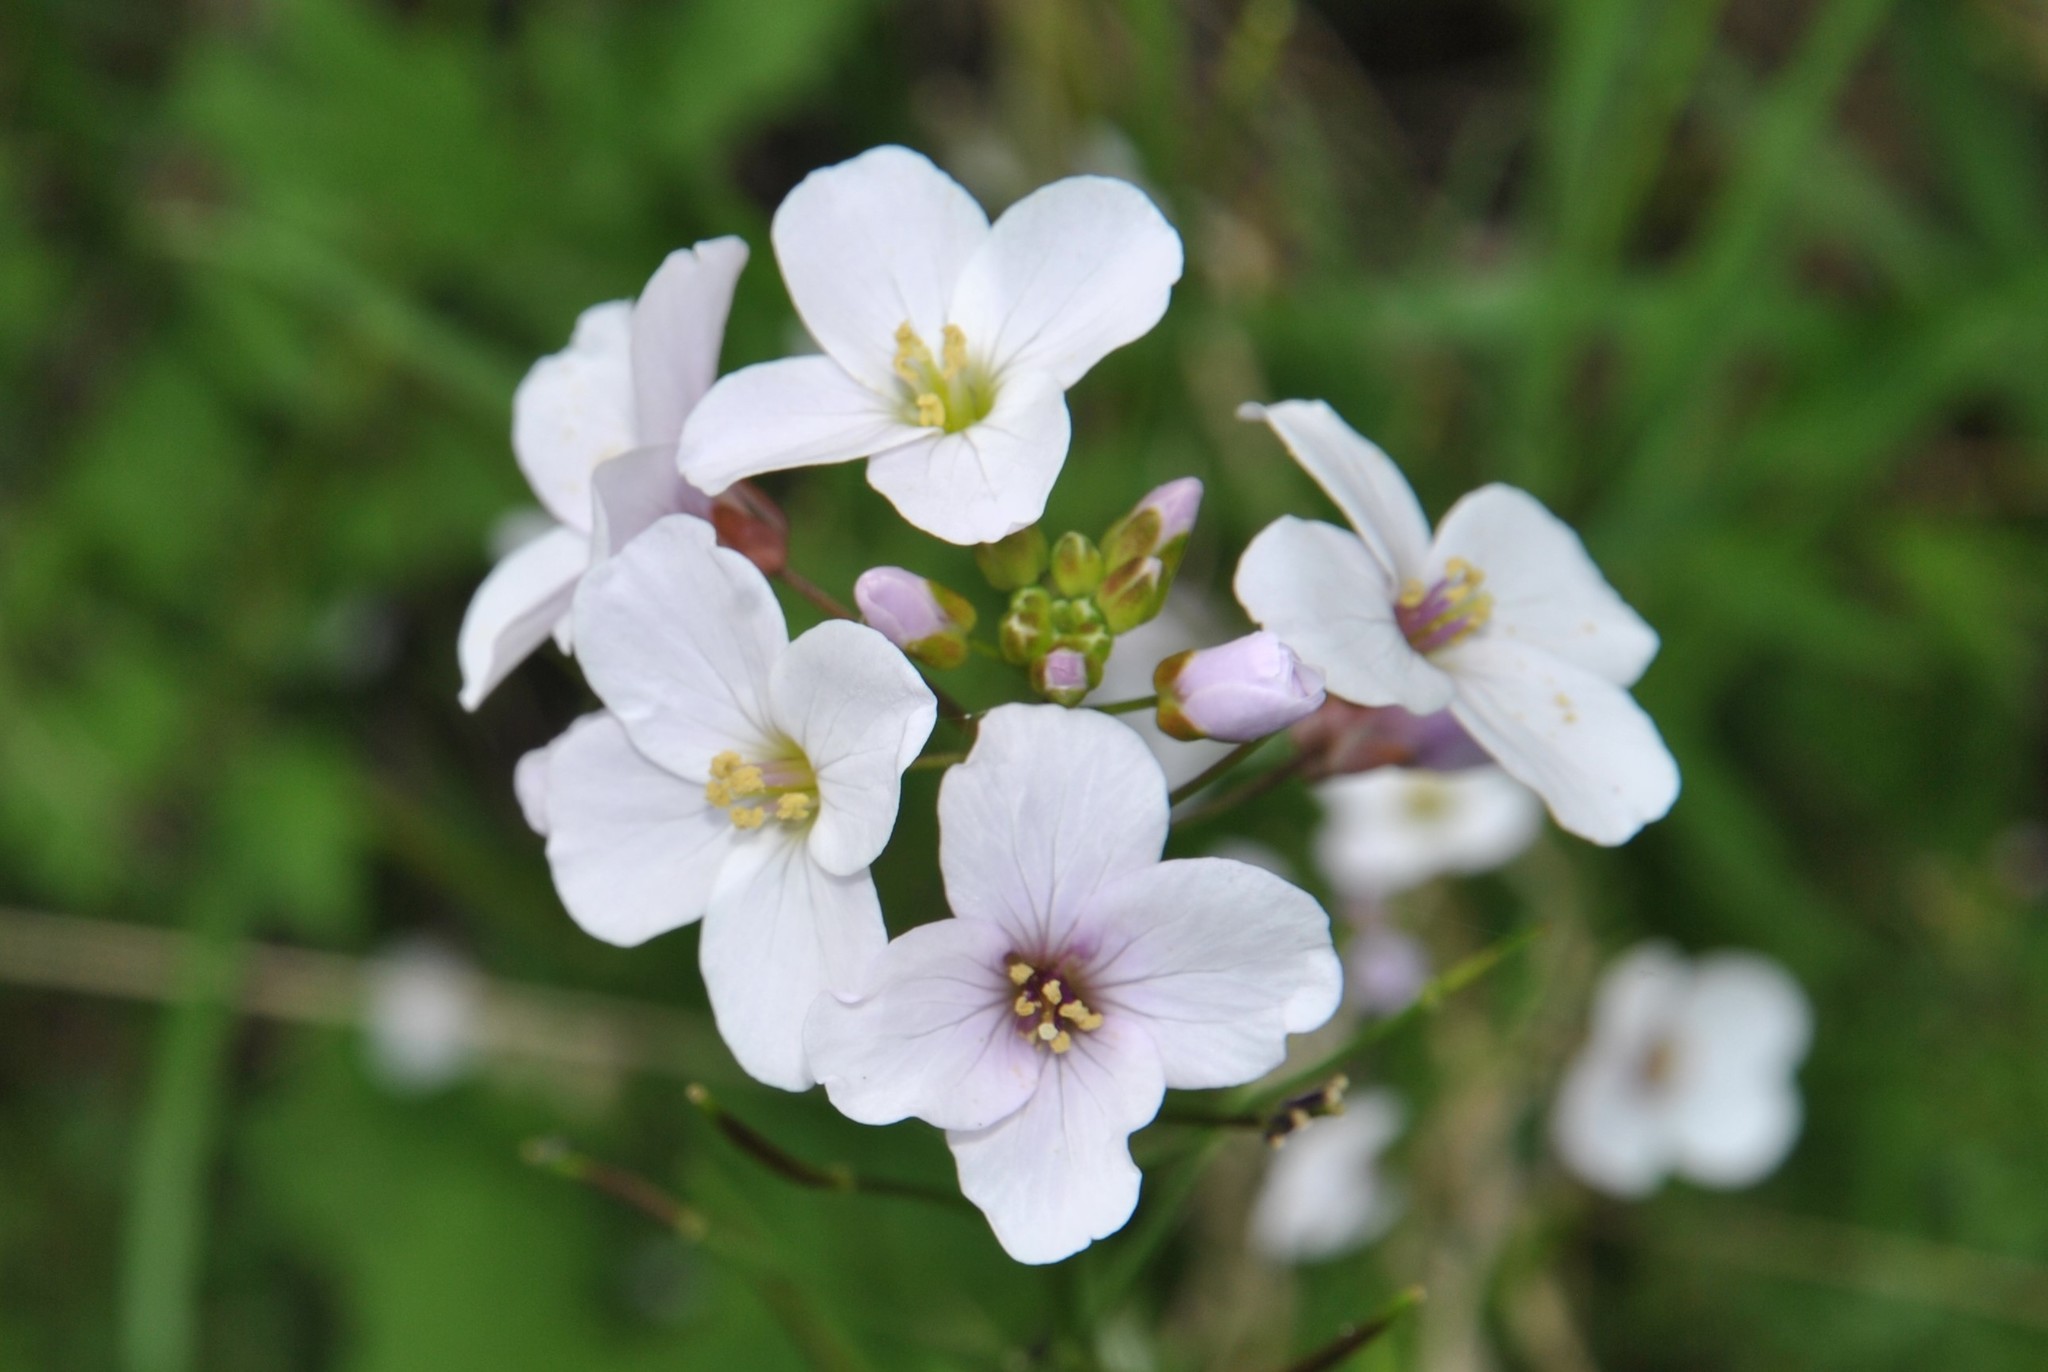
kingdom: Plantae
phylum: Tracheophyta
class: Magnoliopsida
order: Brassicales
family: Brassicaceae
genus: Cardamine
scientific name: Cardamine californica
